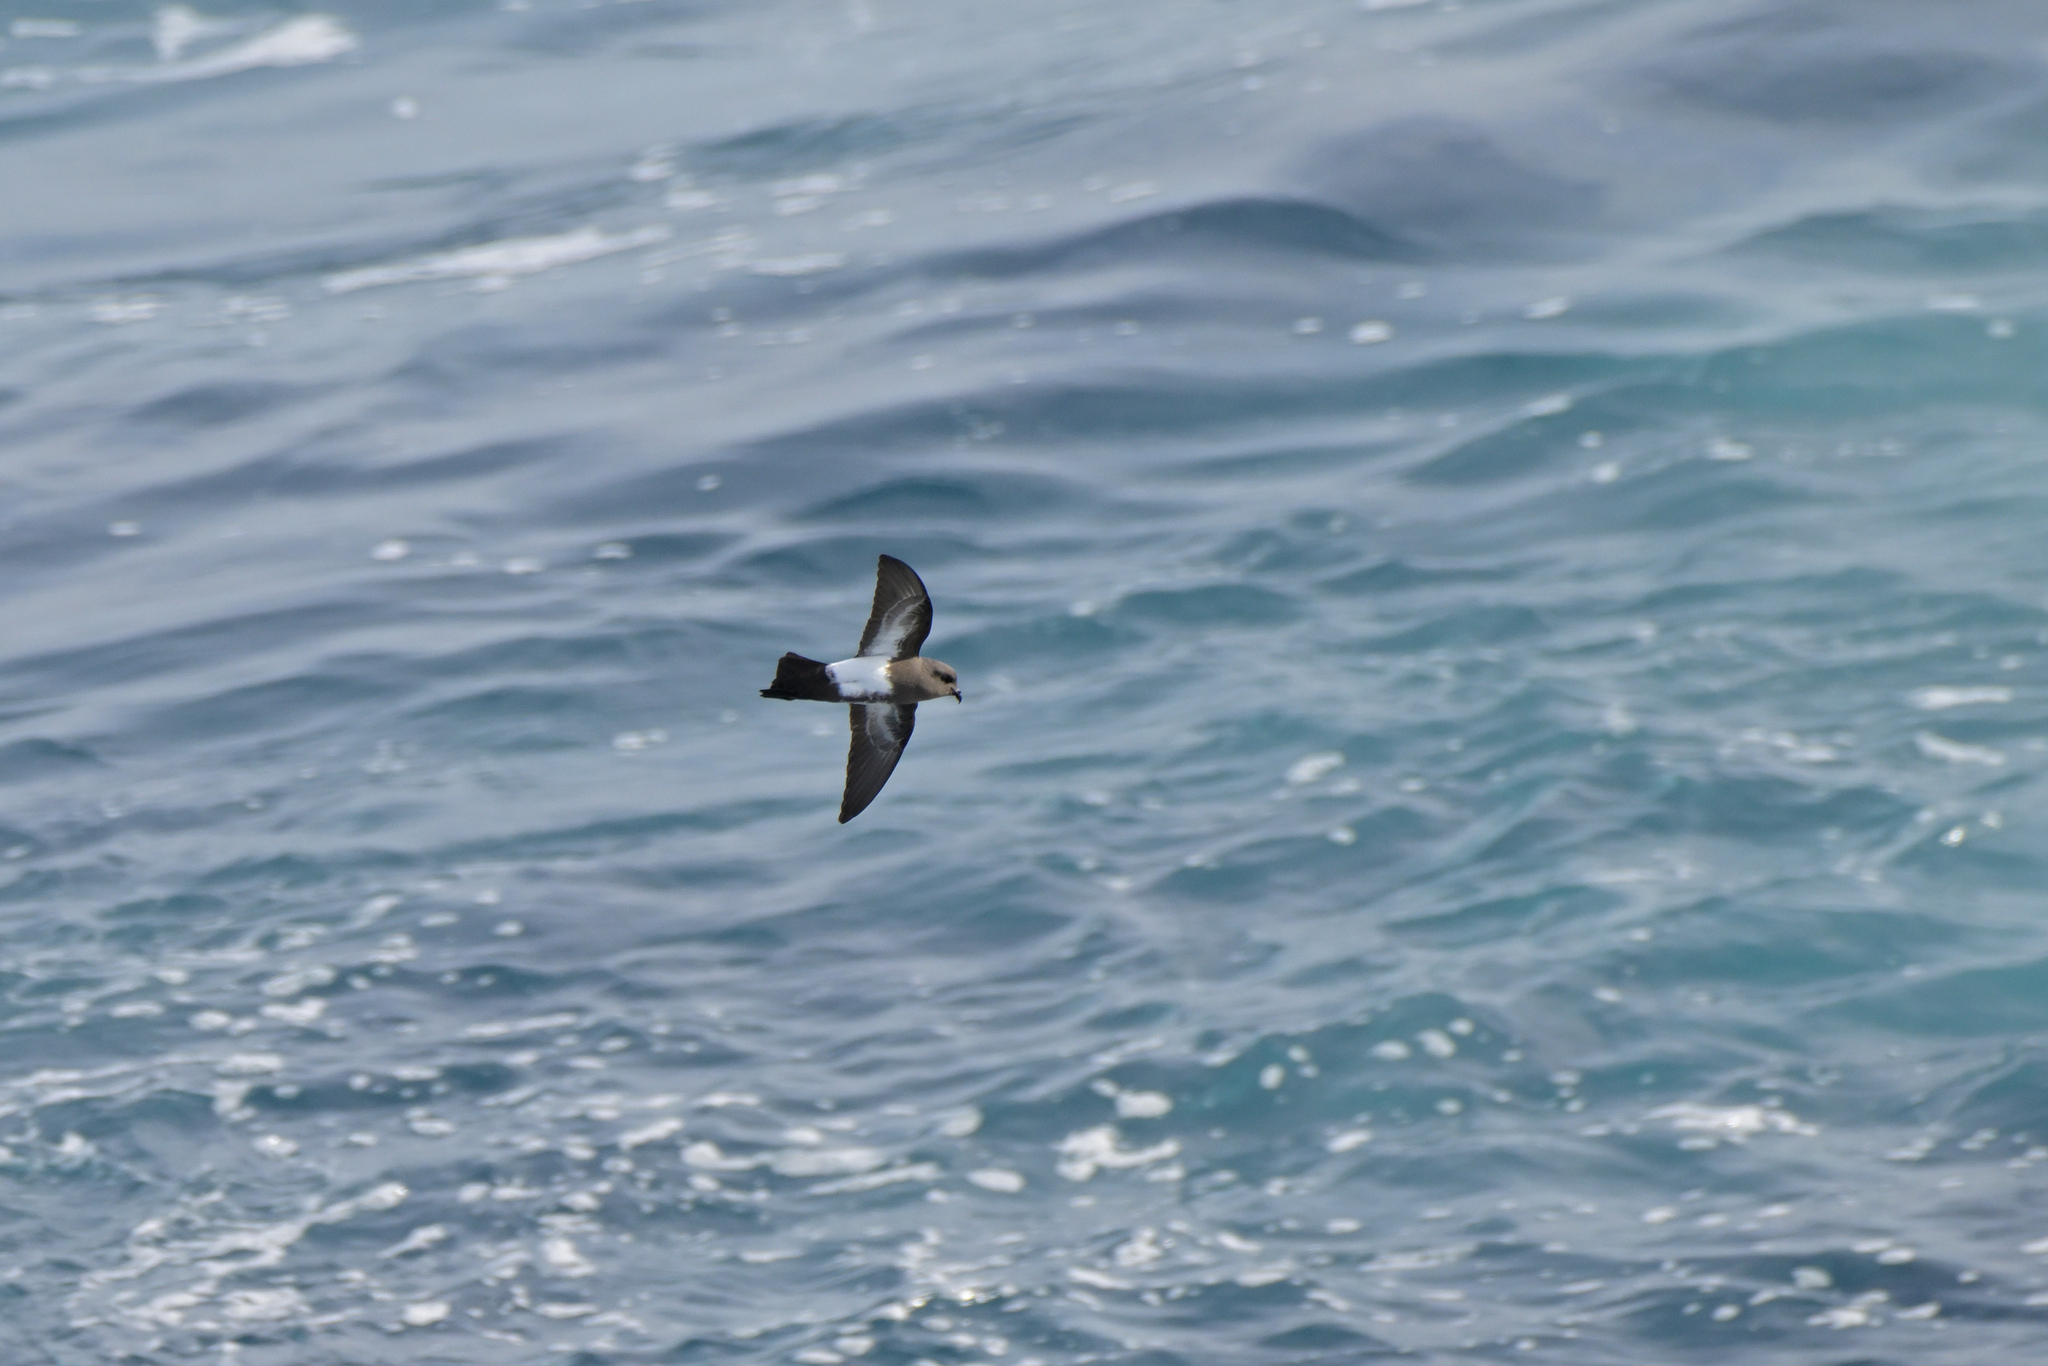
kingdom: Animalia
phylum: Chordata
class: Aves
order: Procellariiformes
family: Hydrobatidae
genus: Fregetta
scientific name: Fregetta tropica
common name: Black-bellied storm-petrel
